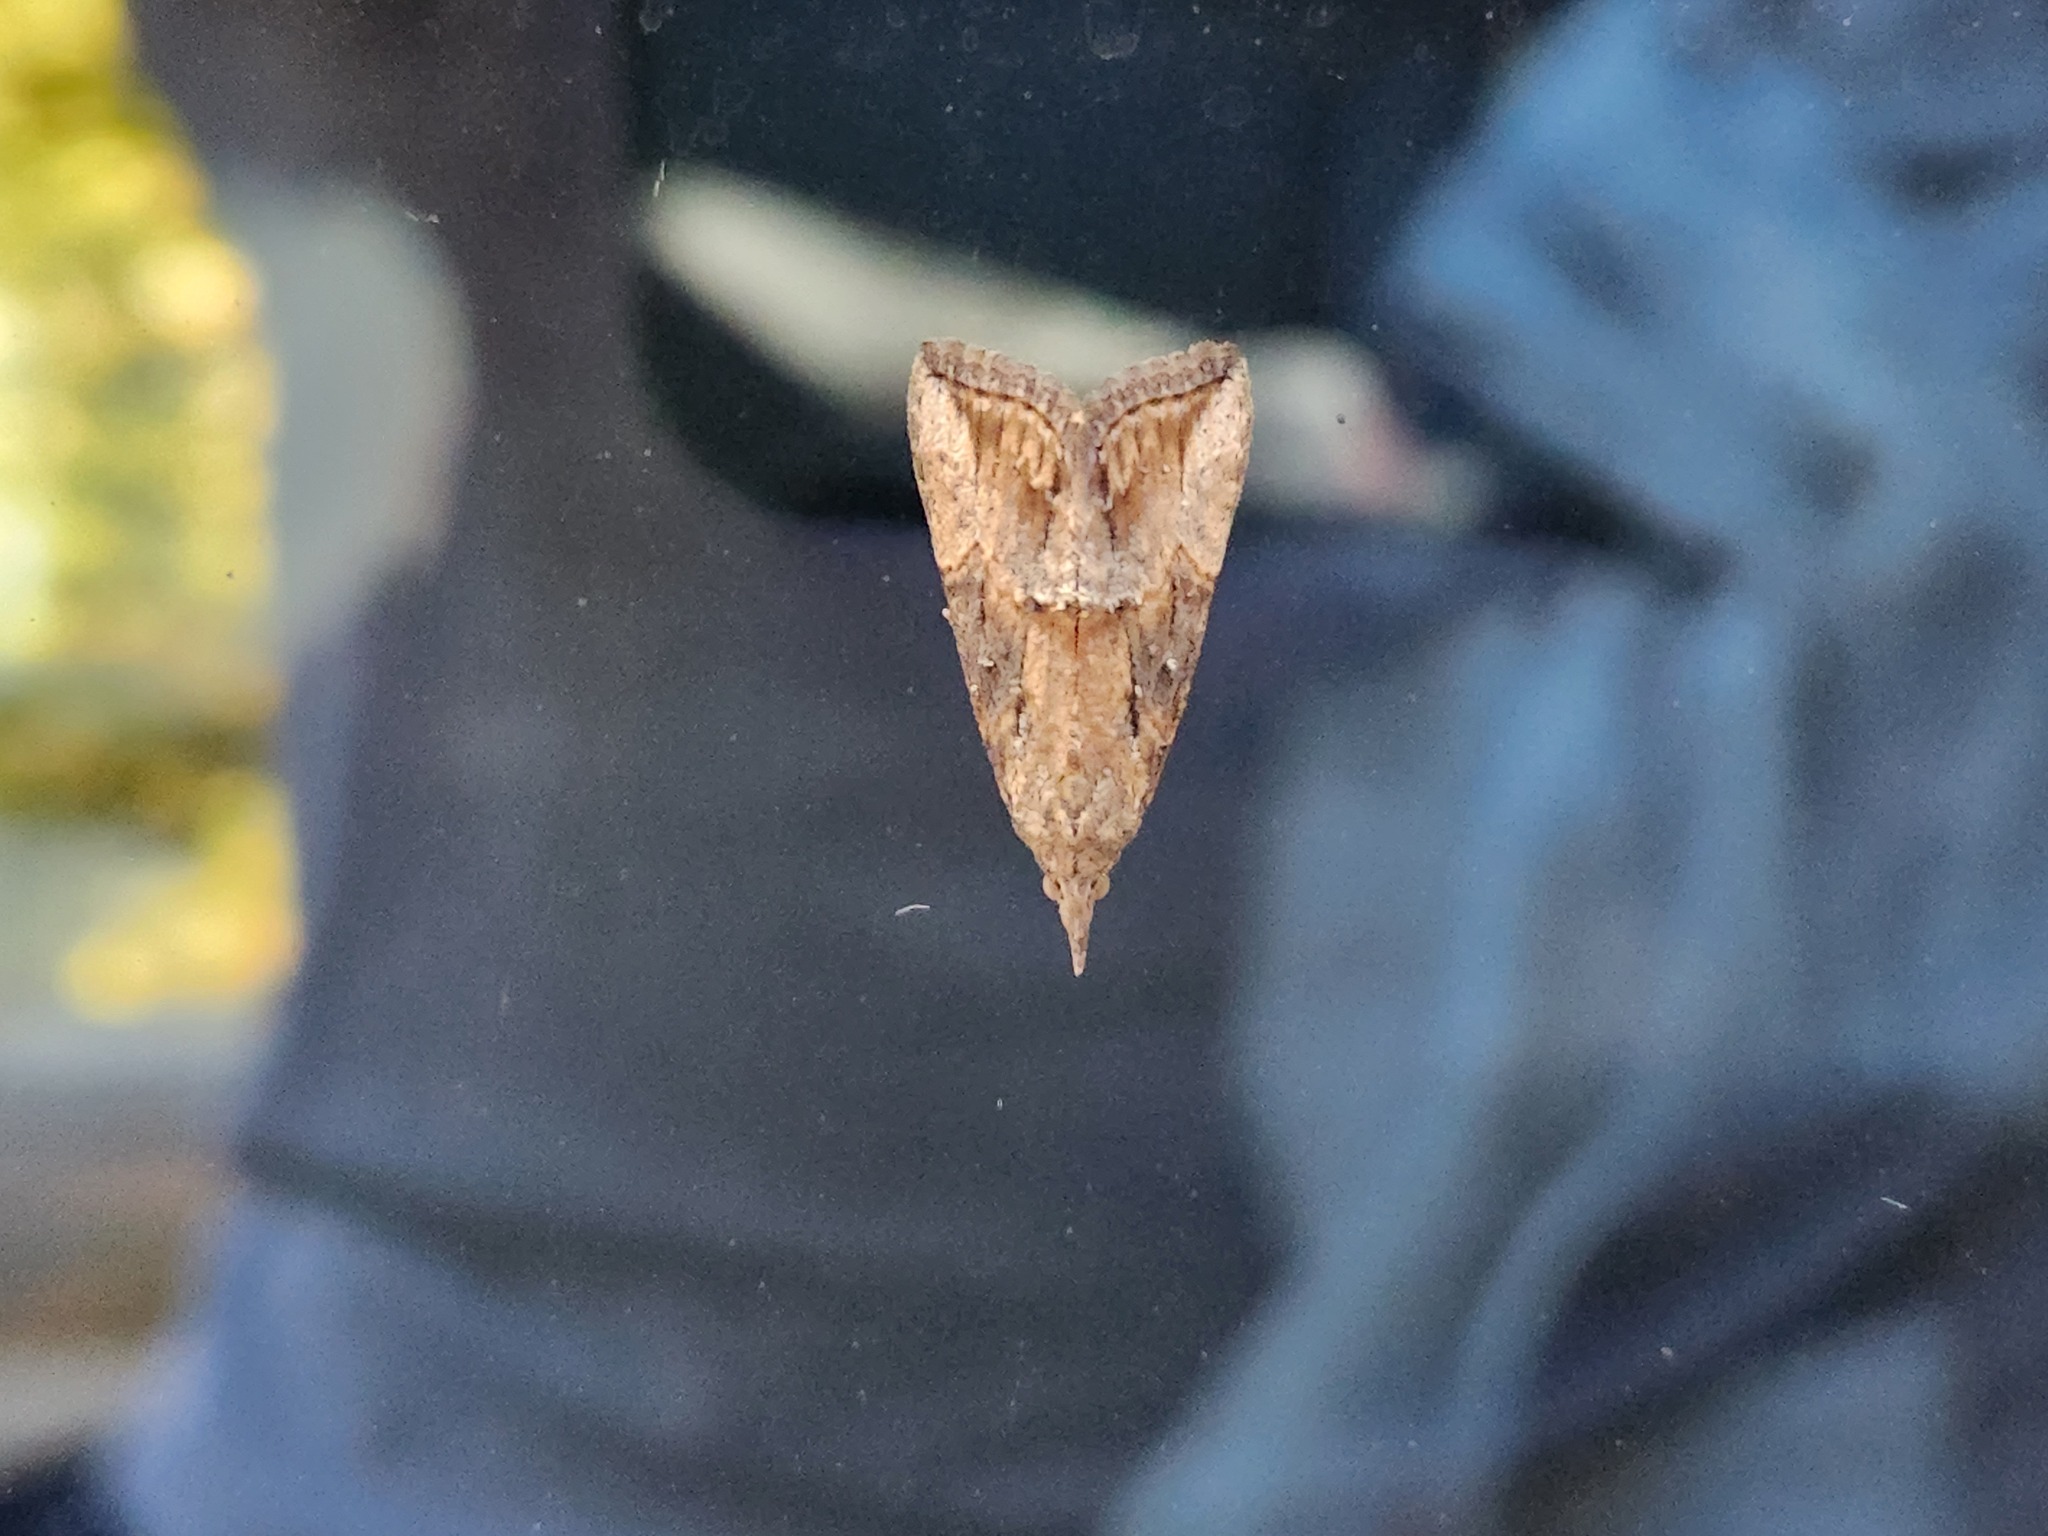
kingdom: Animalia
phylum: Arthropoda
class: Insecta
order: Lepidoptera
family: Erebidae
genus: Hypena
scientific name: Hypena scabra
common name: Green cloverworm
